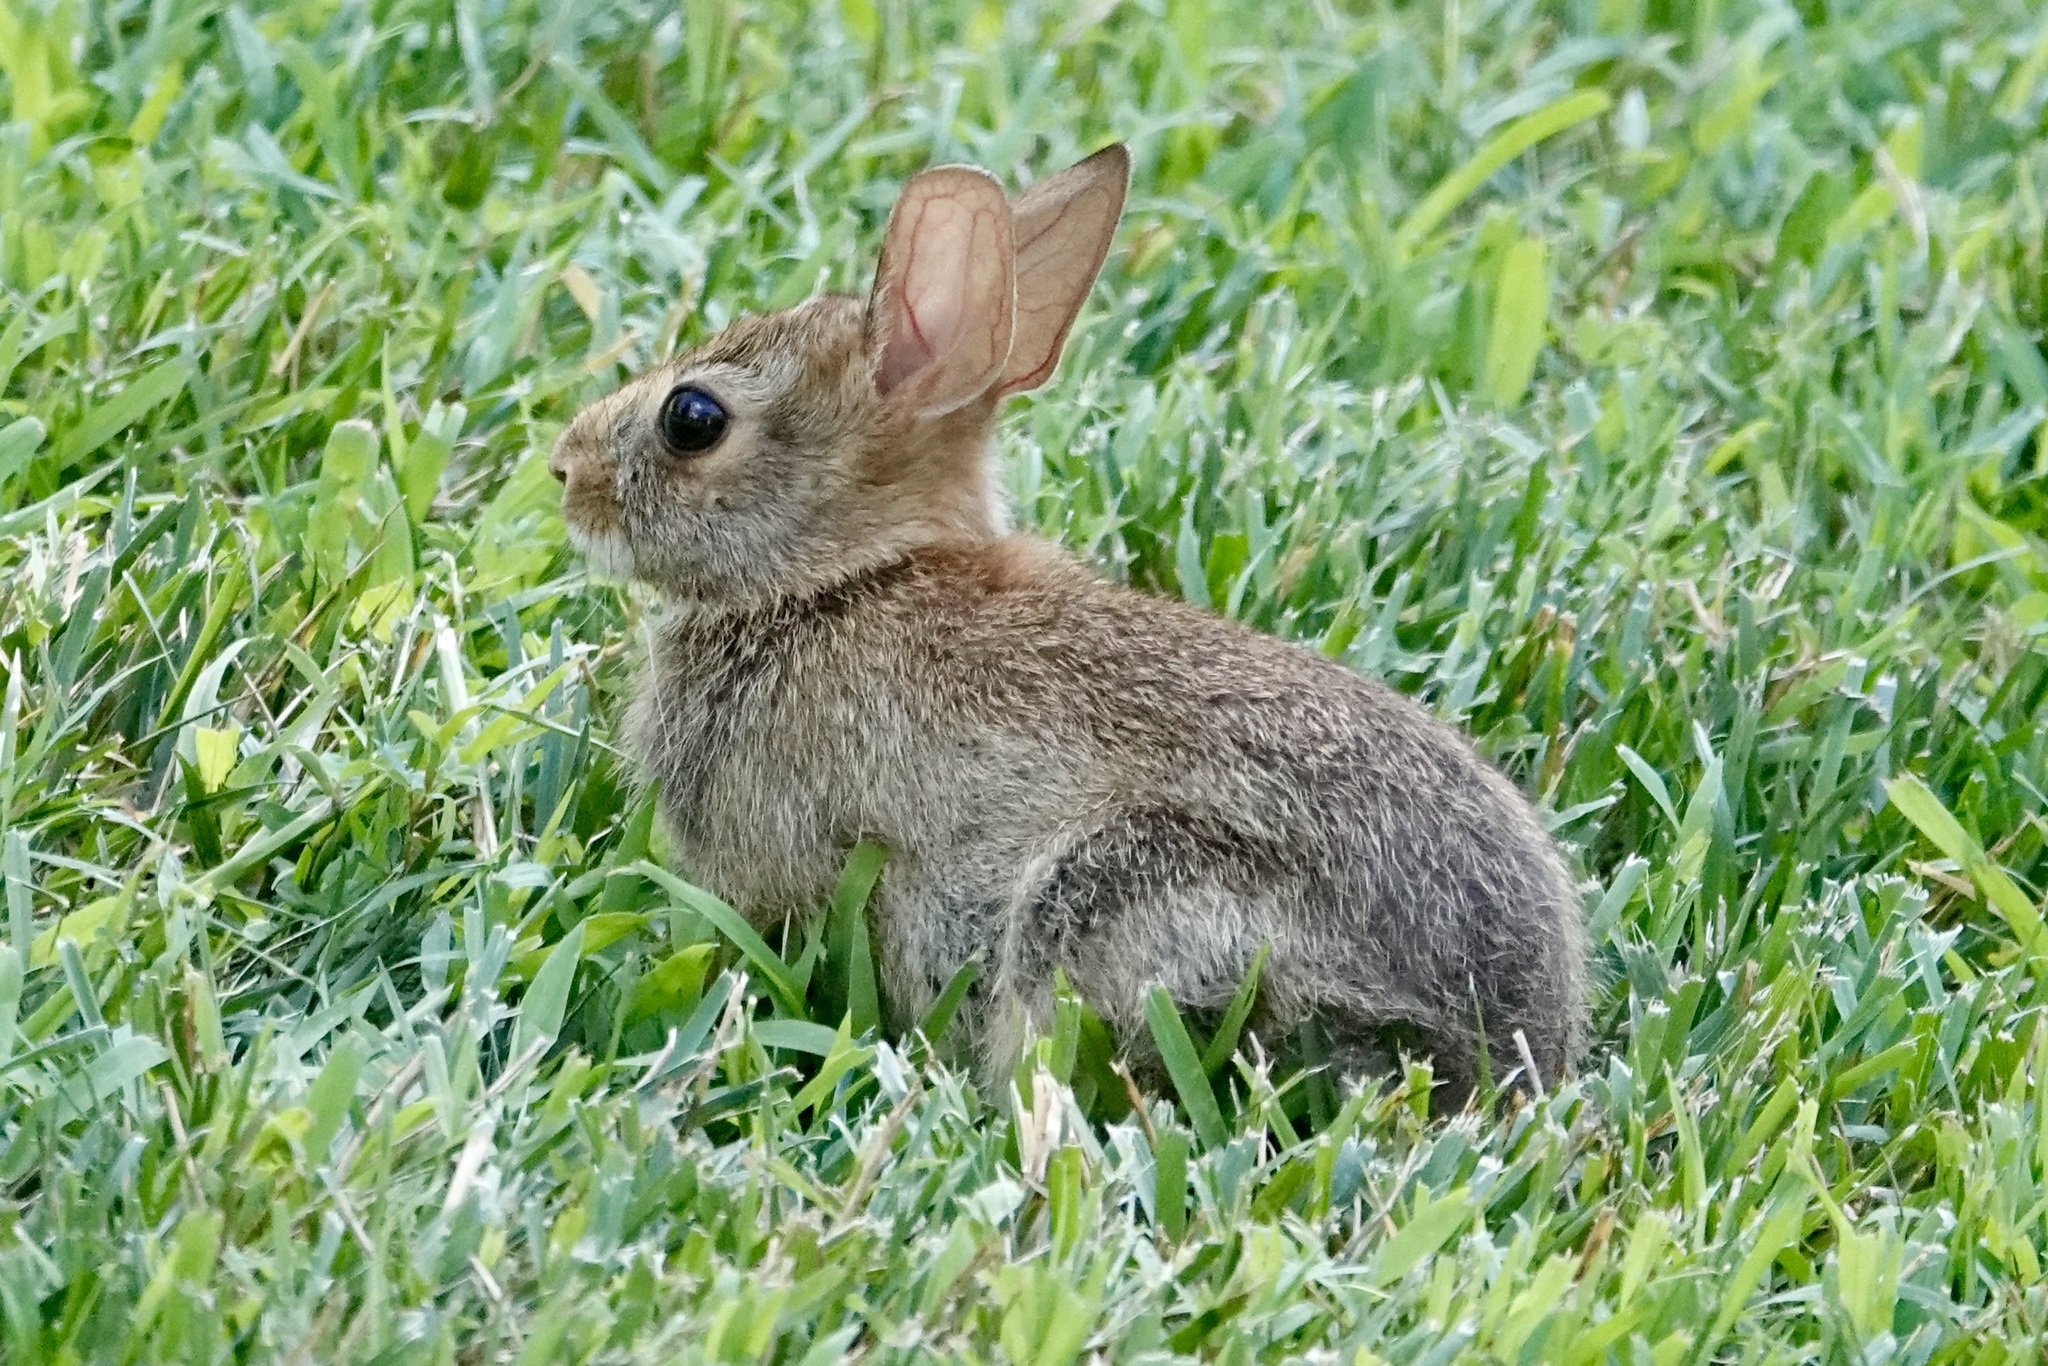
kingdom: Animalia
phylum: Chordata
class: Mammalia
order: Lagomorpha
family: Leporidae
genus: Sylvilagus
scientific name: Sylvilagus floridanus
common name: Eastern cottontail
